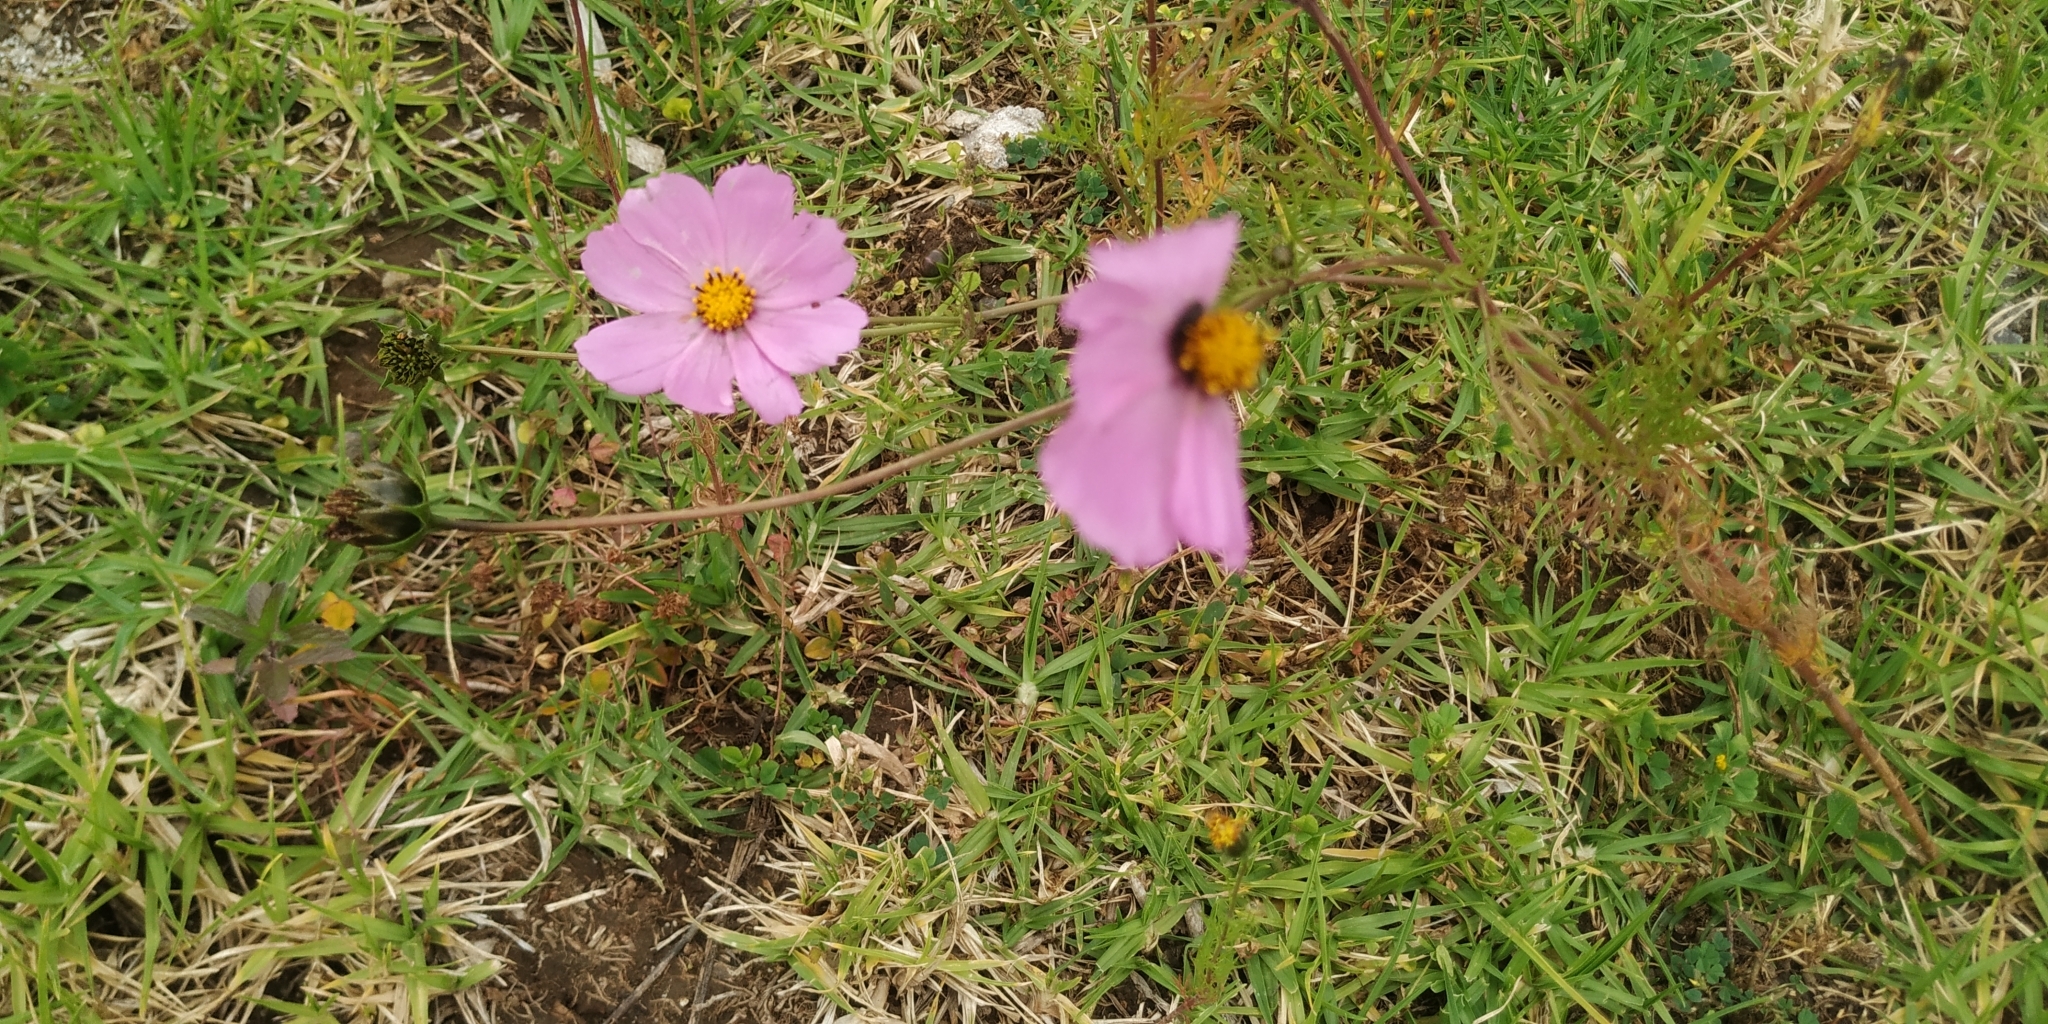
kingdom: Plantae
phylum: Tracheophyta
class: Magnoliopsida
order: Asterales
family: Asteraceae
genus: Cosmos
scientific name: Cosmos bipinnatus
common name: Garden cosmos
